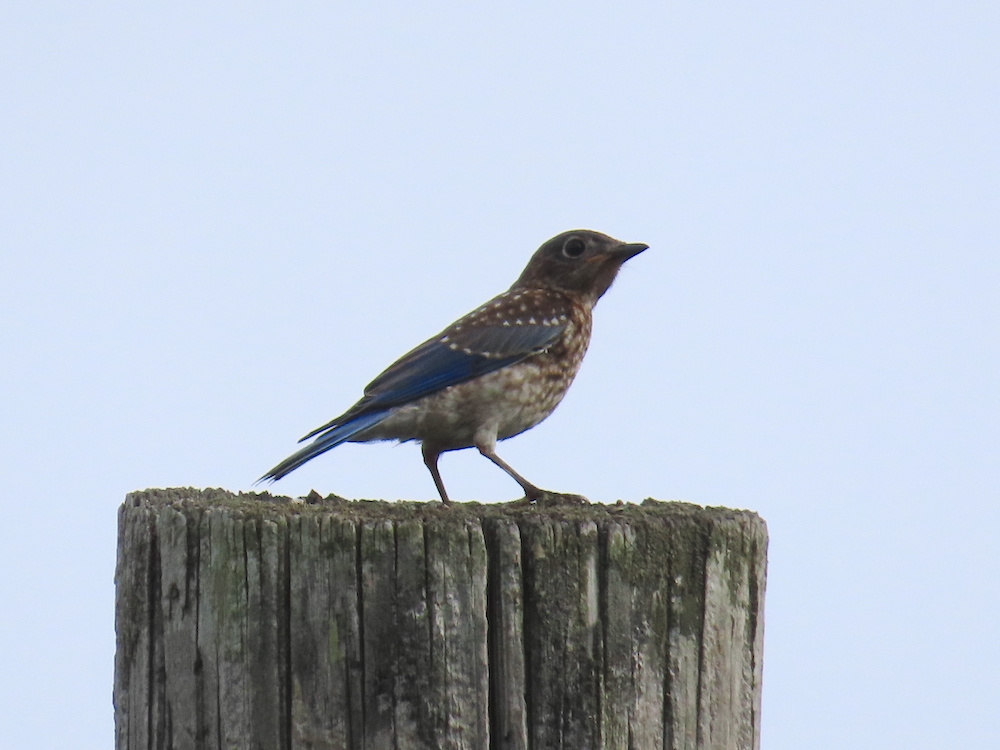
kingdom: Animalia
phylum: Chordata
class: Aves
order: Passeriformes
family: Turdidae
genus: Sialia
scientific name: Sialia sialis
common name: Eastern bluebird
